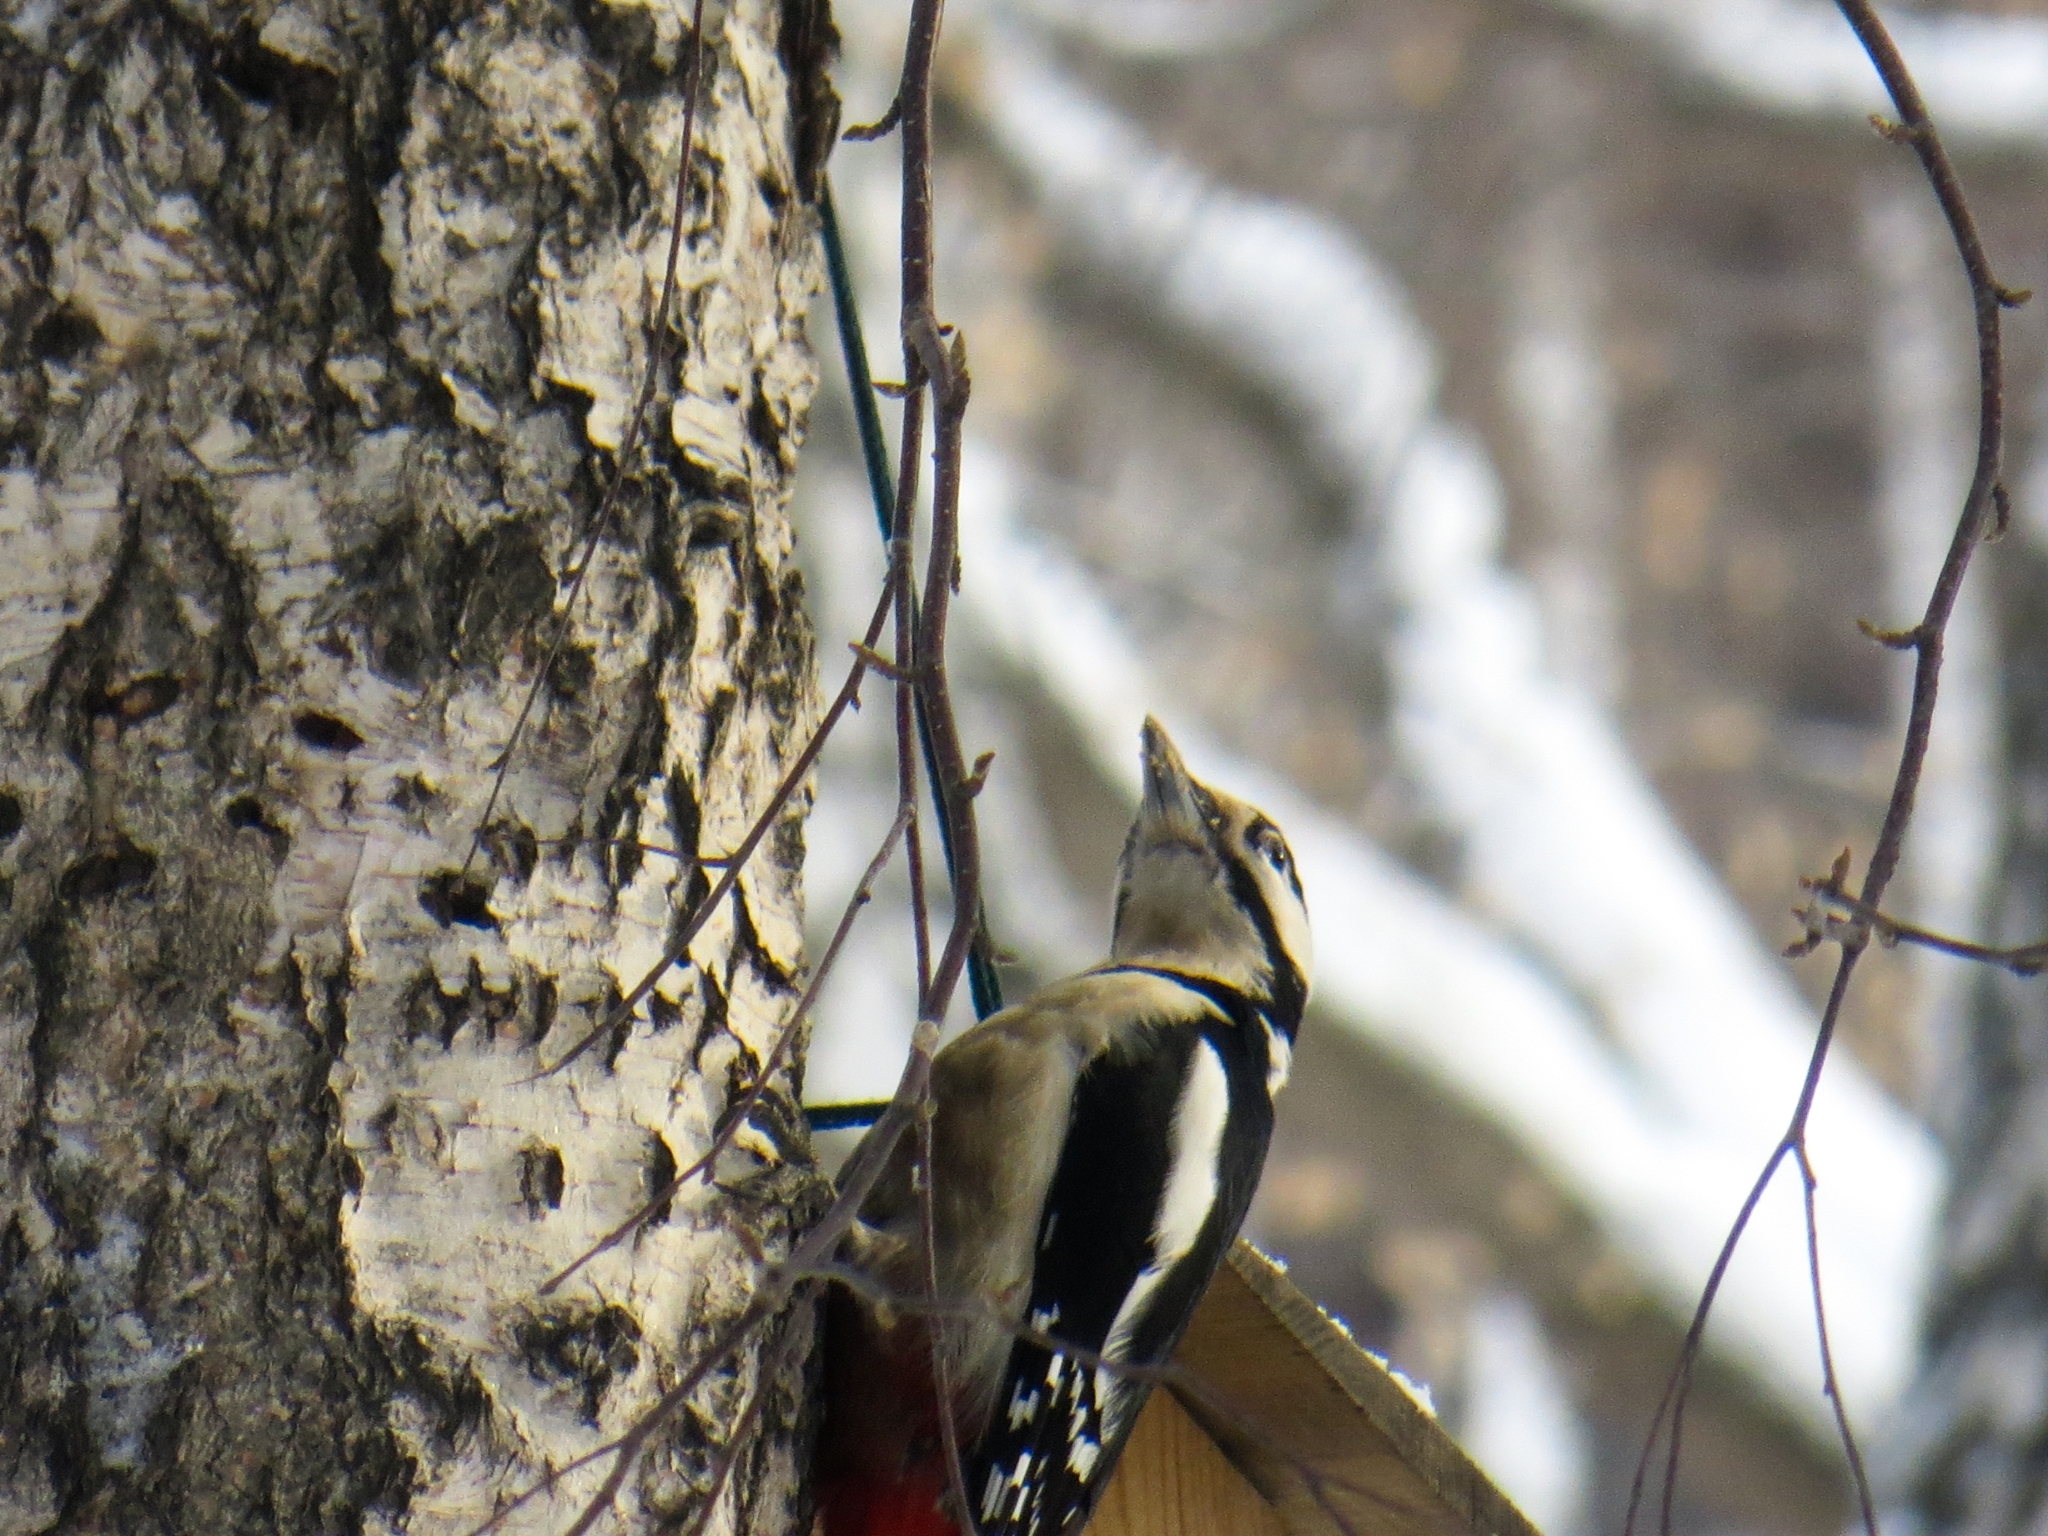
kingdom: Animalia
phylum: Chordata
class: Aves
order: Piciformes
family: Picidae
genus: Dendrocopos
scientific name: Dendrocopos major
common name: Great spotted woodpecker
